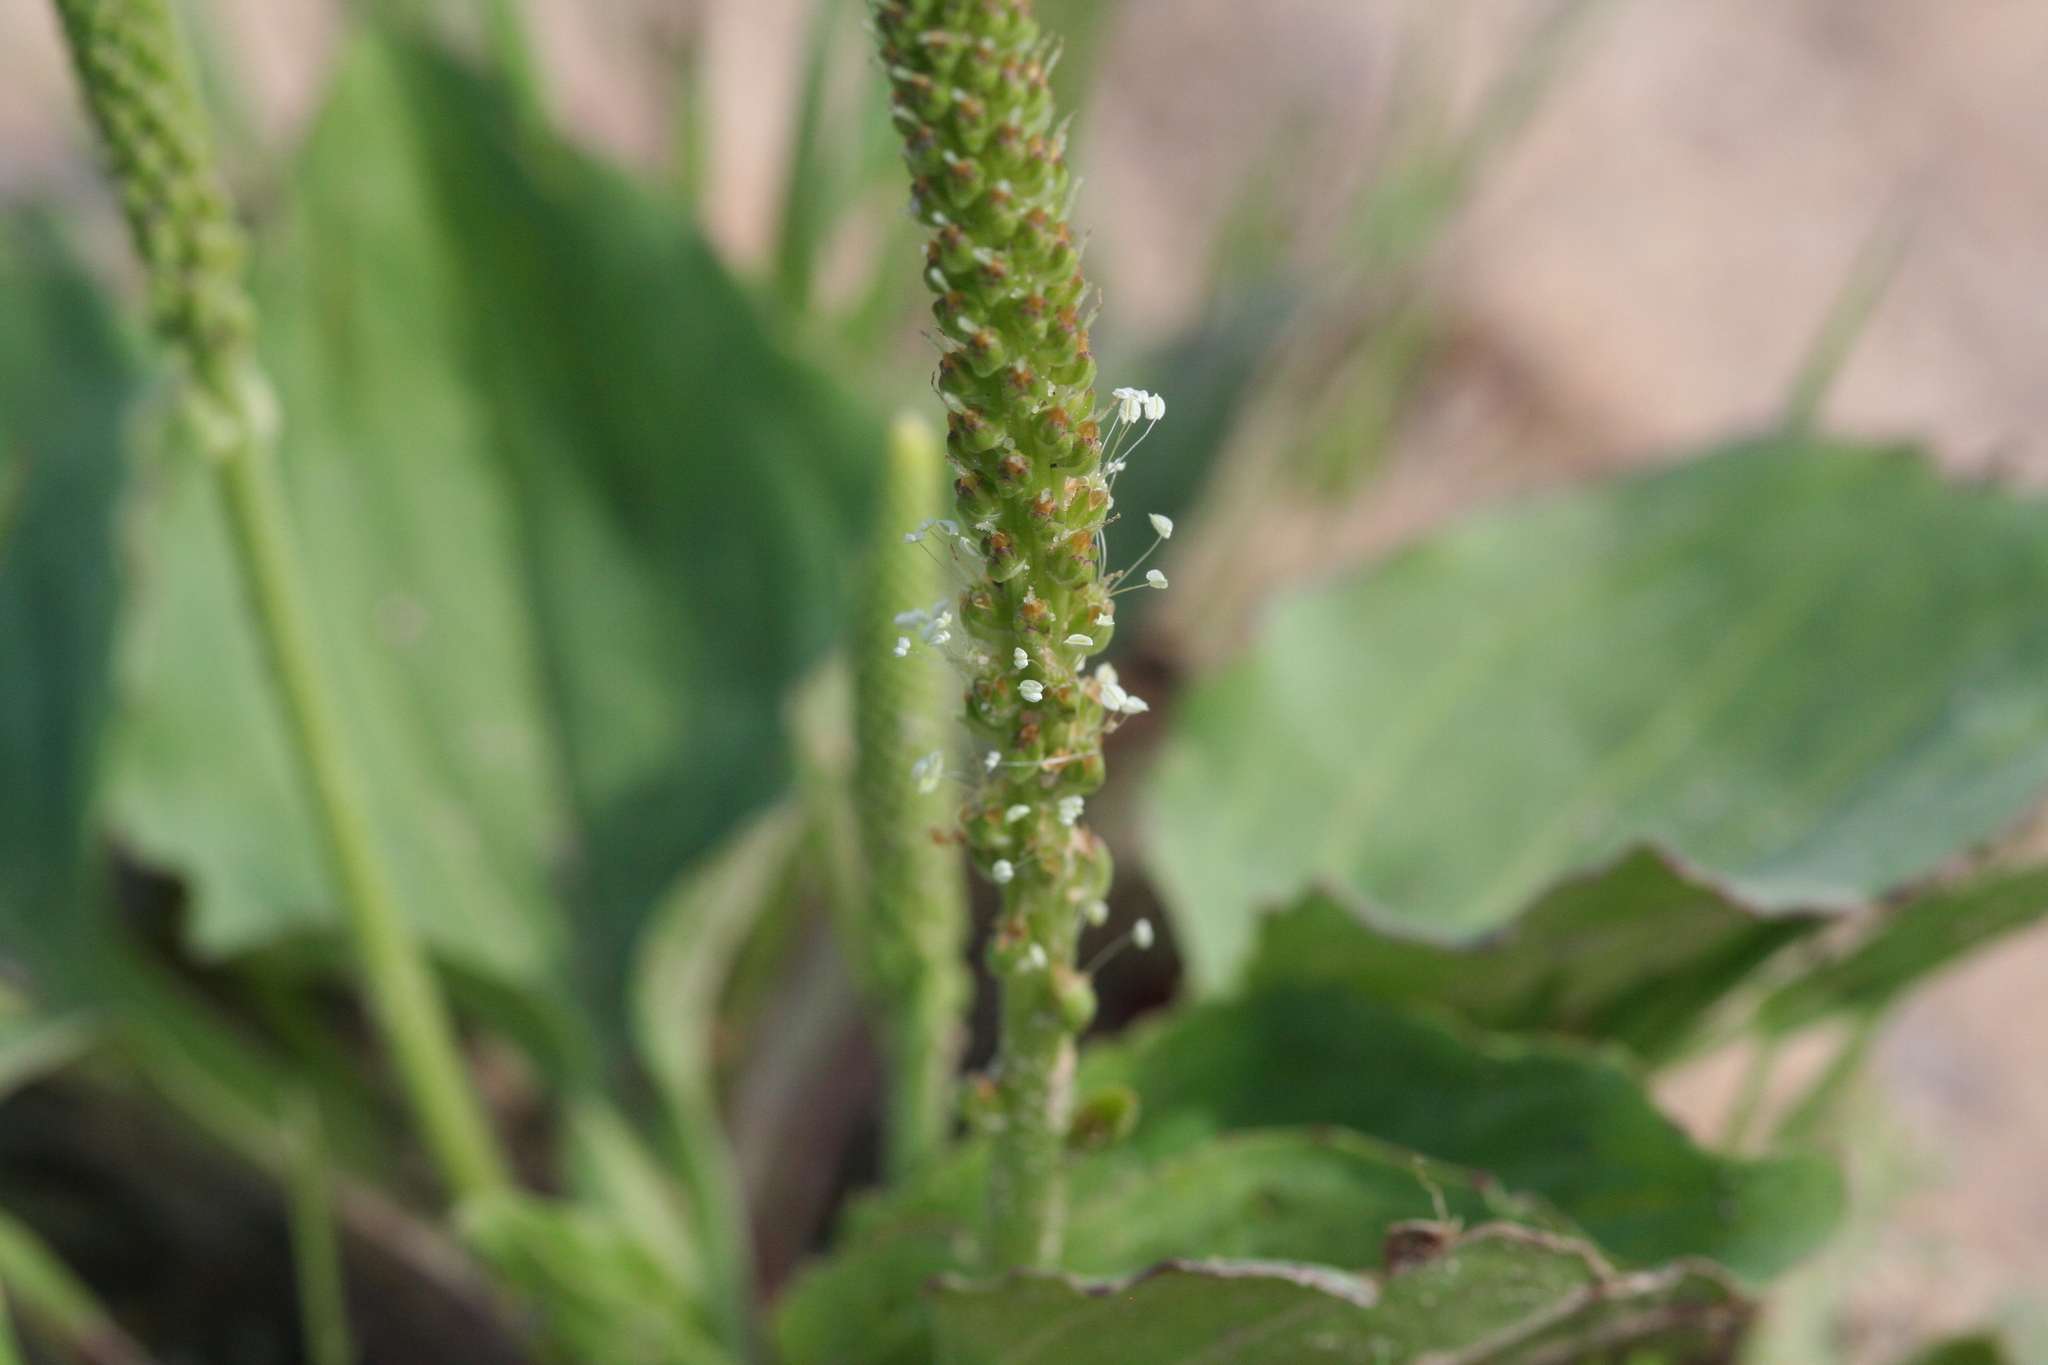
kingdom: Plantae
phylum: Tracheophyta
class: Magnoliopsida
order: Lamiales
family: Plantaginaceae
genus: Plantago
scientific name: Plantago major
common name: Common plantain
